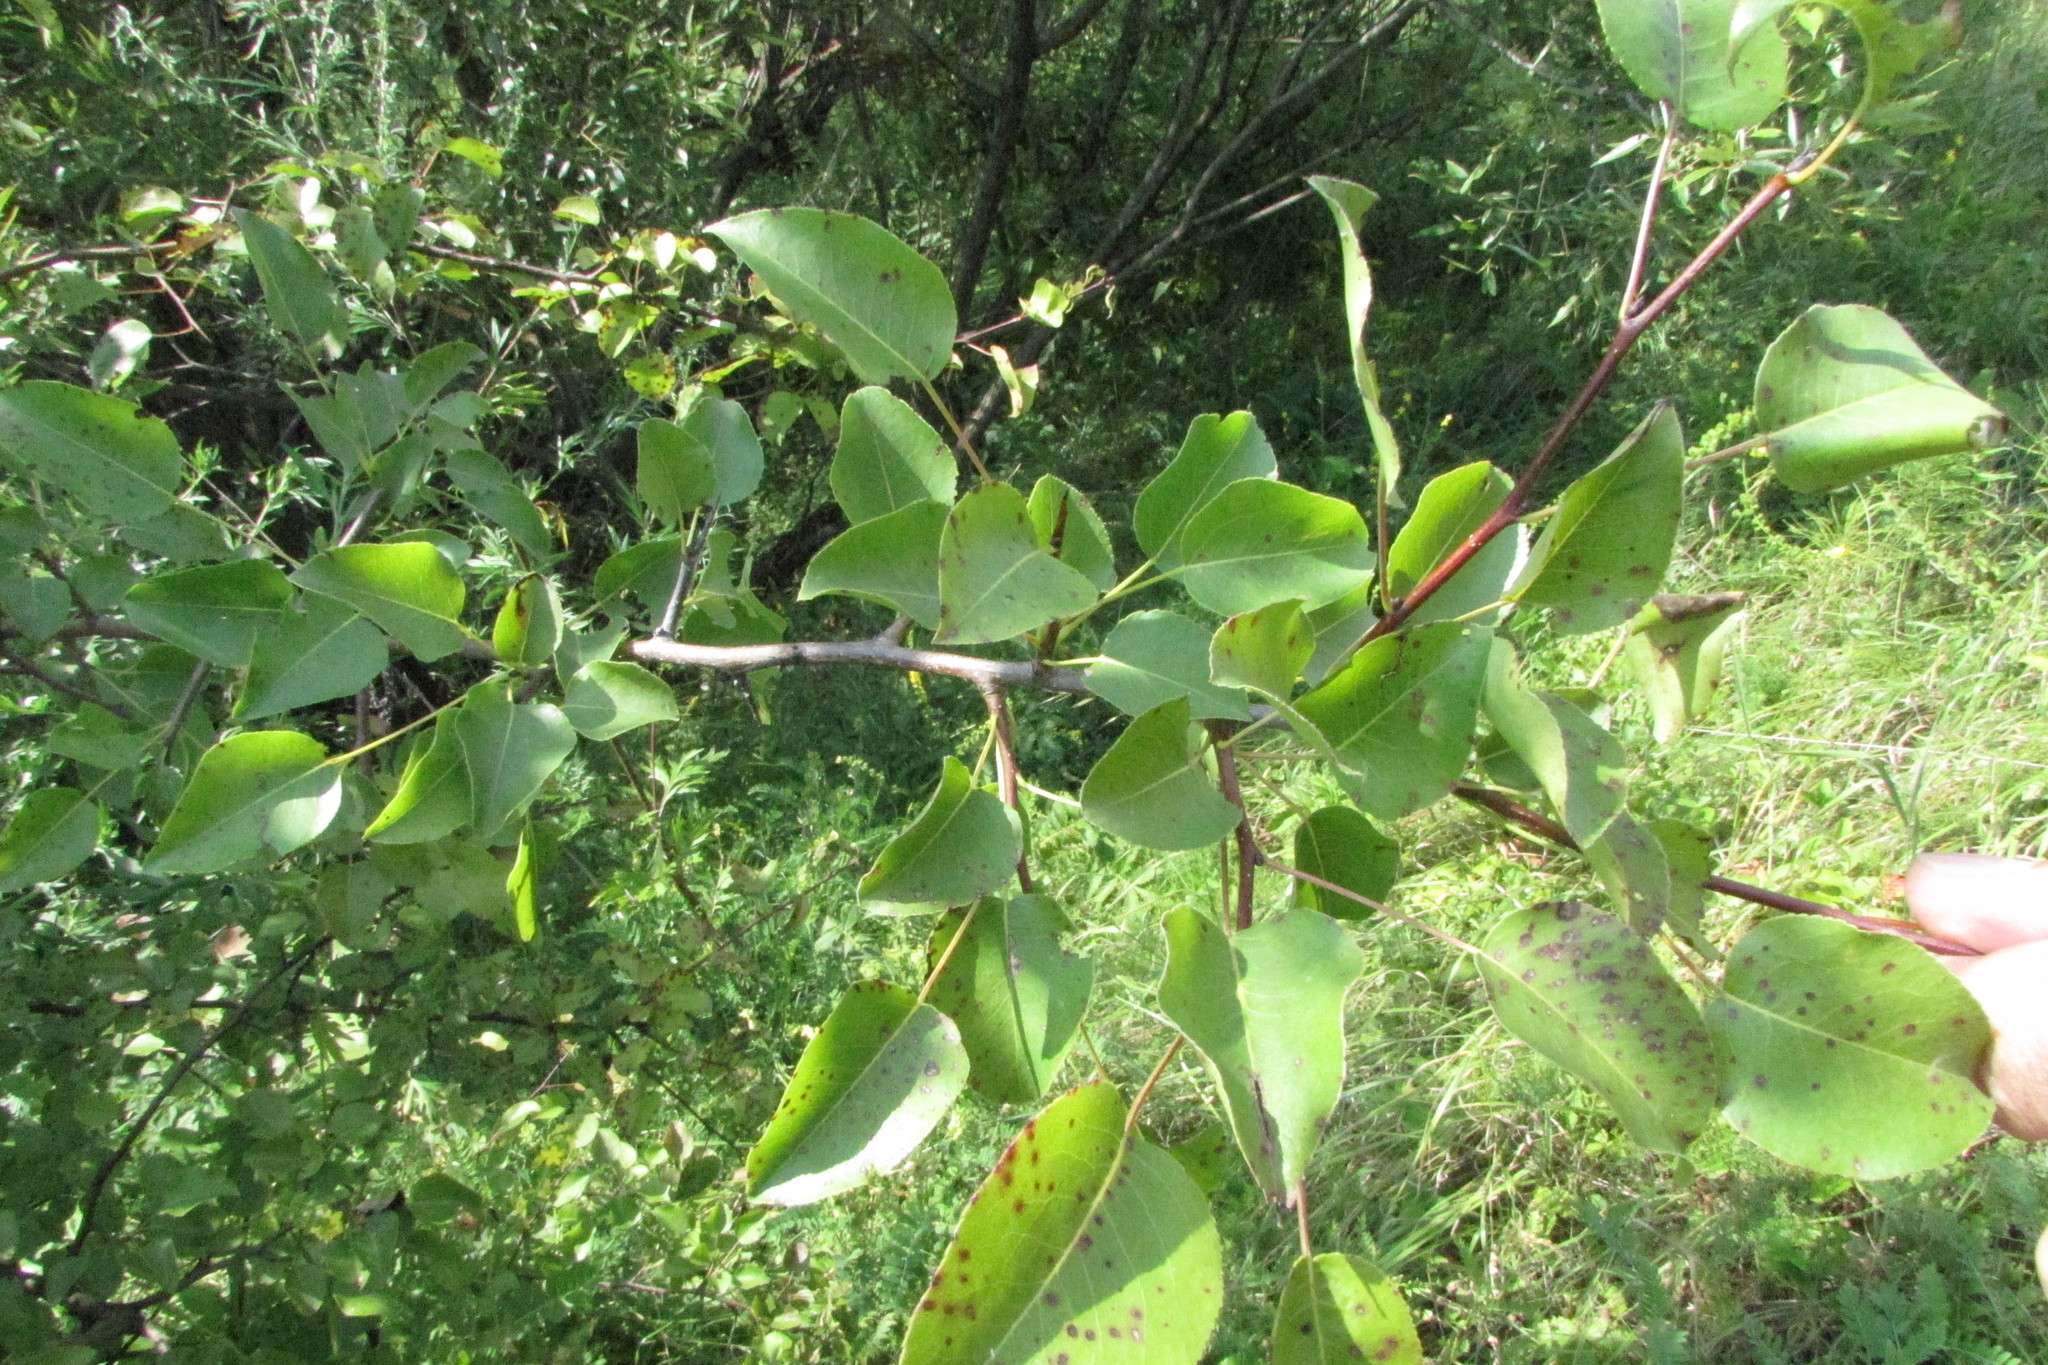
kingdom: Plantae
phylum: Tracheophyta
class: Magnoliopsida
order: Rosales
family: Rosaceae
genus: Pyrus
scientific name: Pyrus
